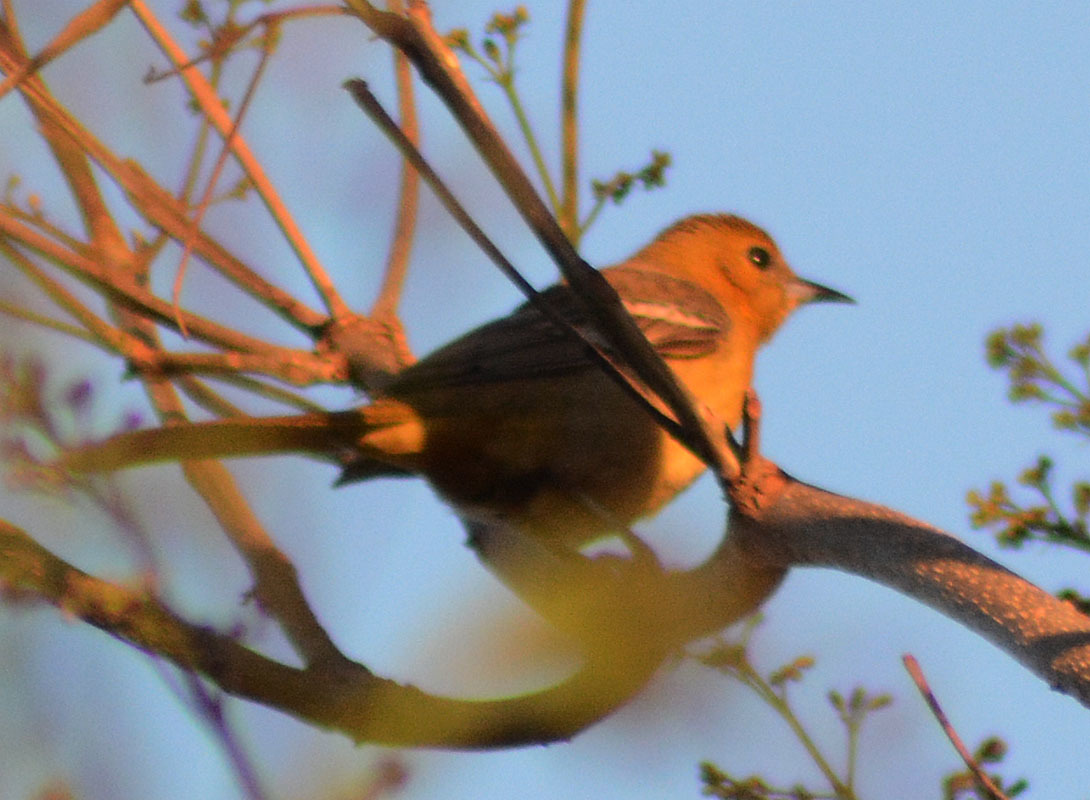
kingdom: Animalia
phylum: Chordata
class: Aves
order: Passeriformes
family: Icteridae
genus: Icterus
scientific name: Icterus spurius
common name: Orchard oriole
